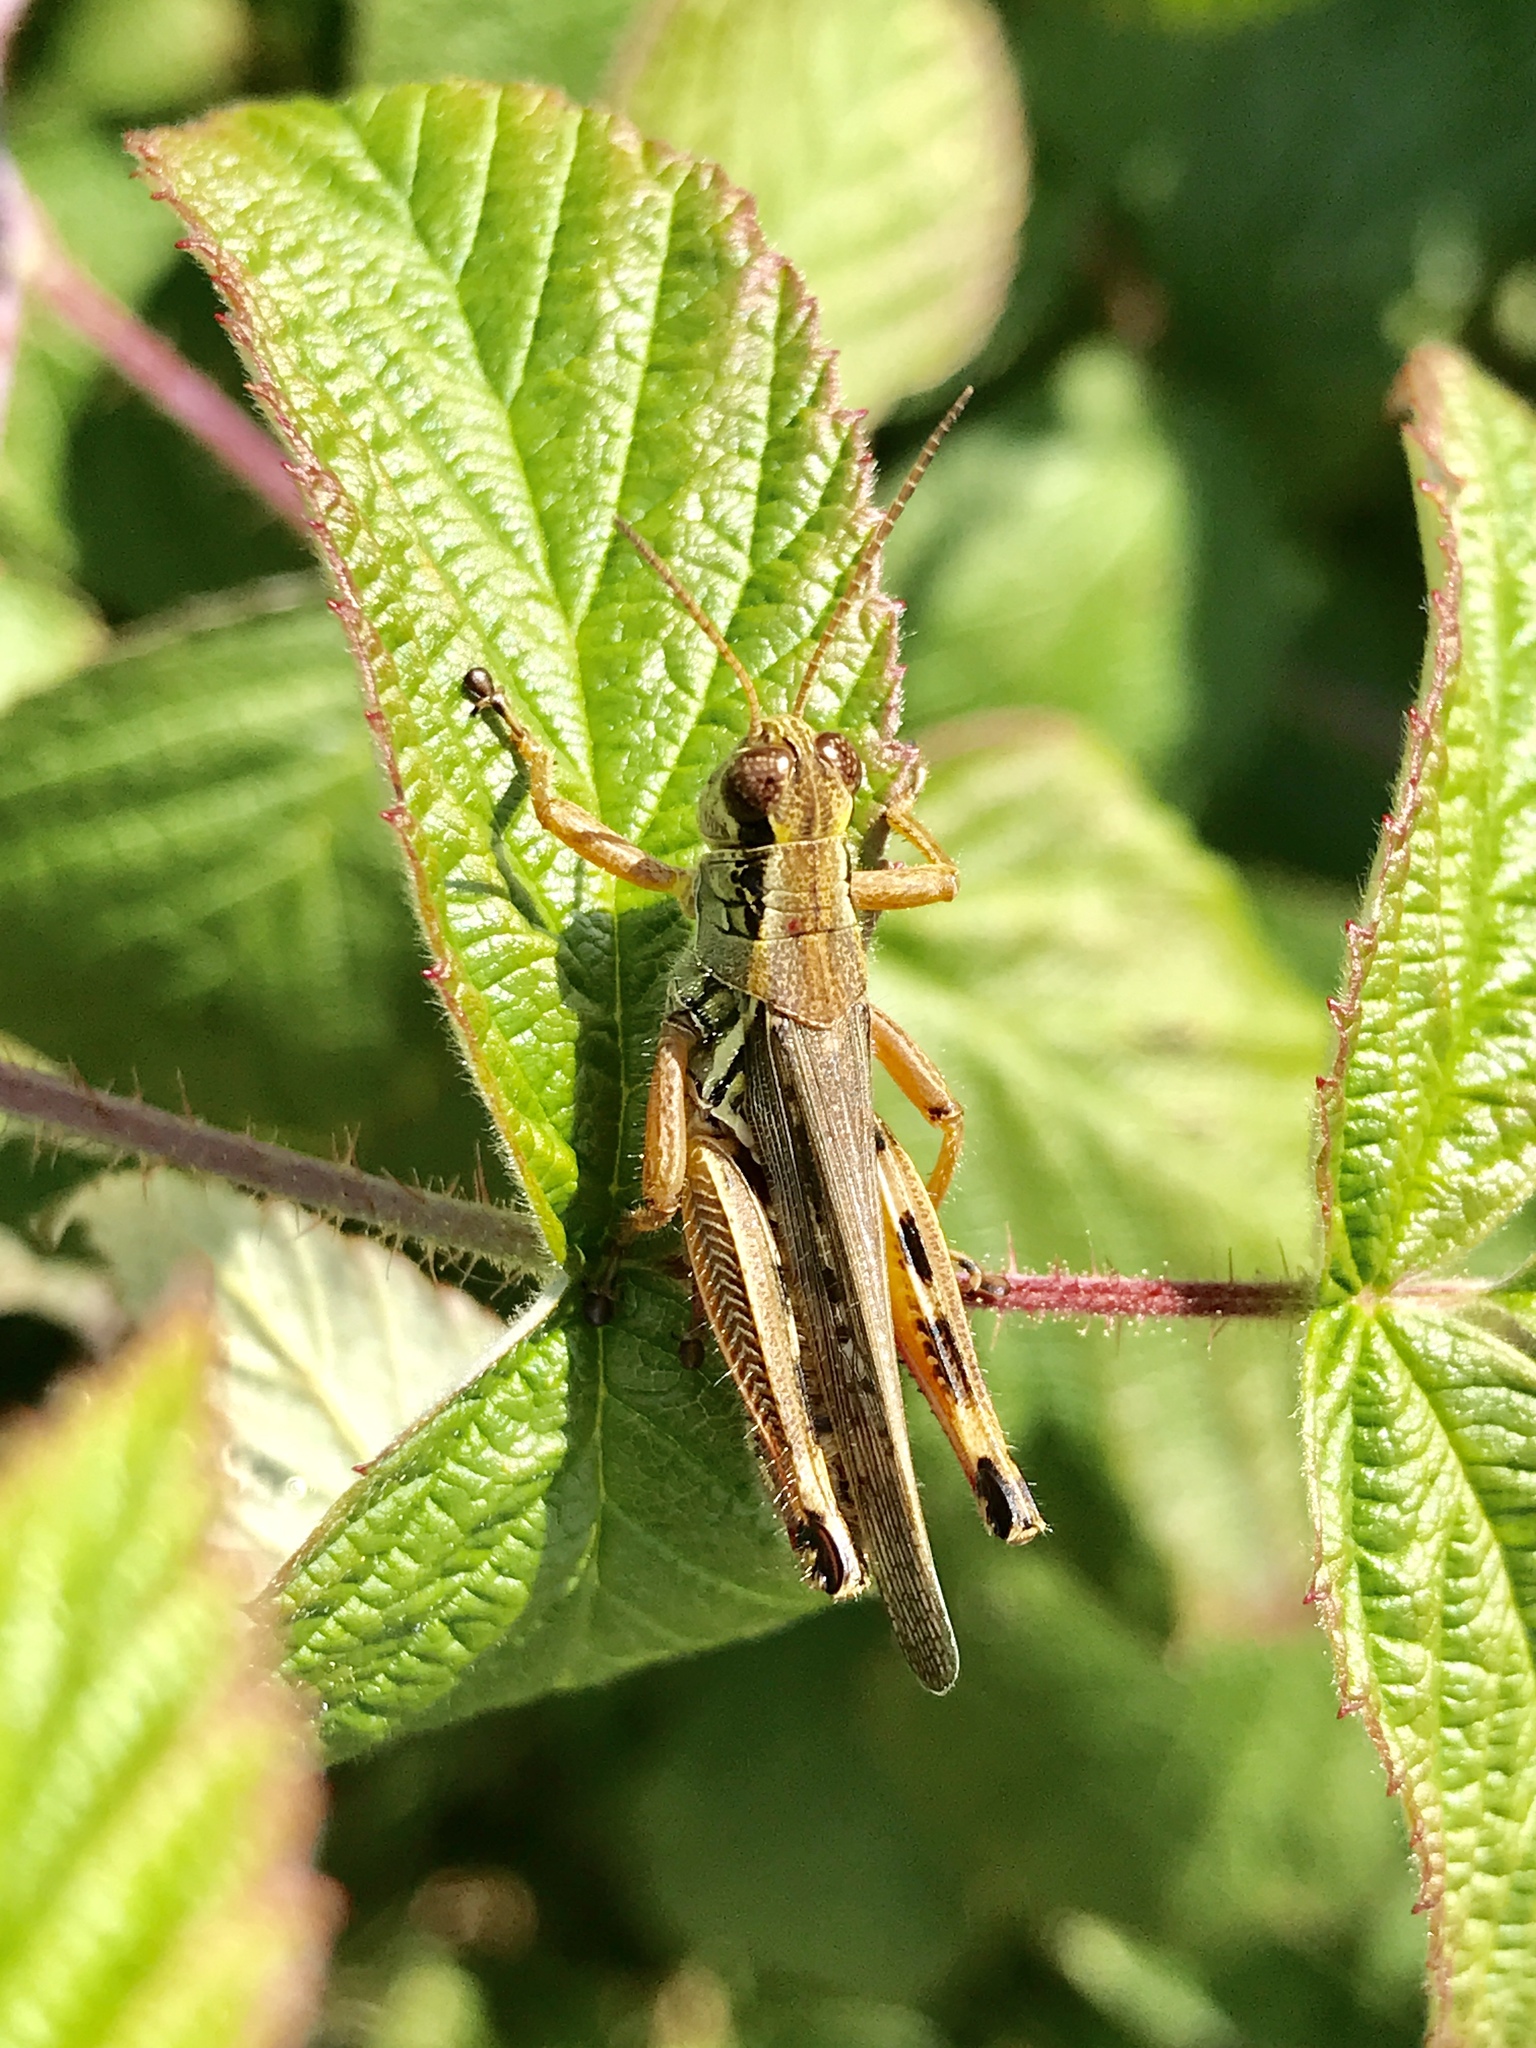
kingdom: Animalia
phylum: Arthropoda
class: Insecta
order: Orthoptera
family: Acrididae
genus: Melanoplus
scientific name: Melanoplus femurrubrum
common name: Red-legged grasshopper
